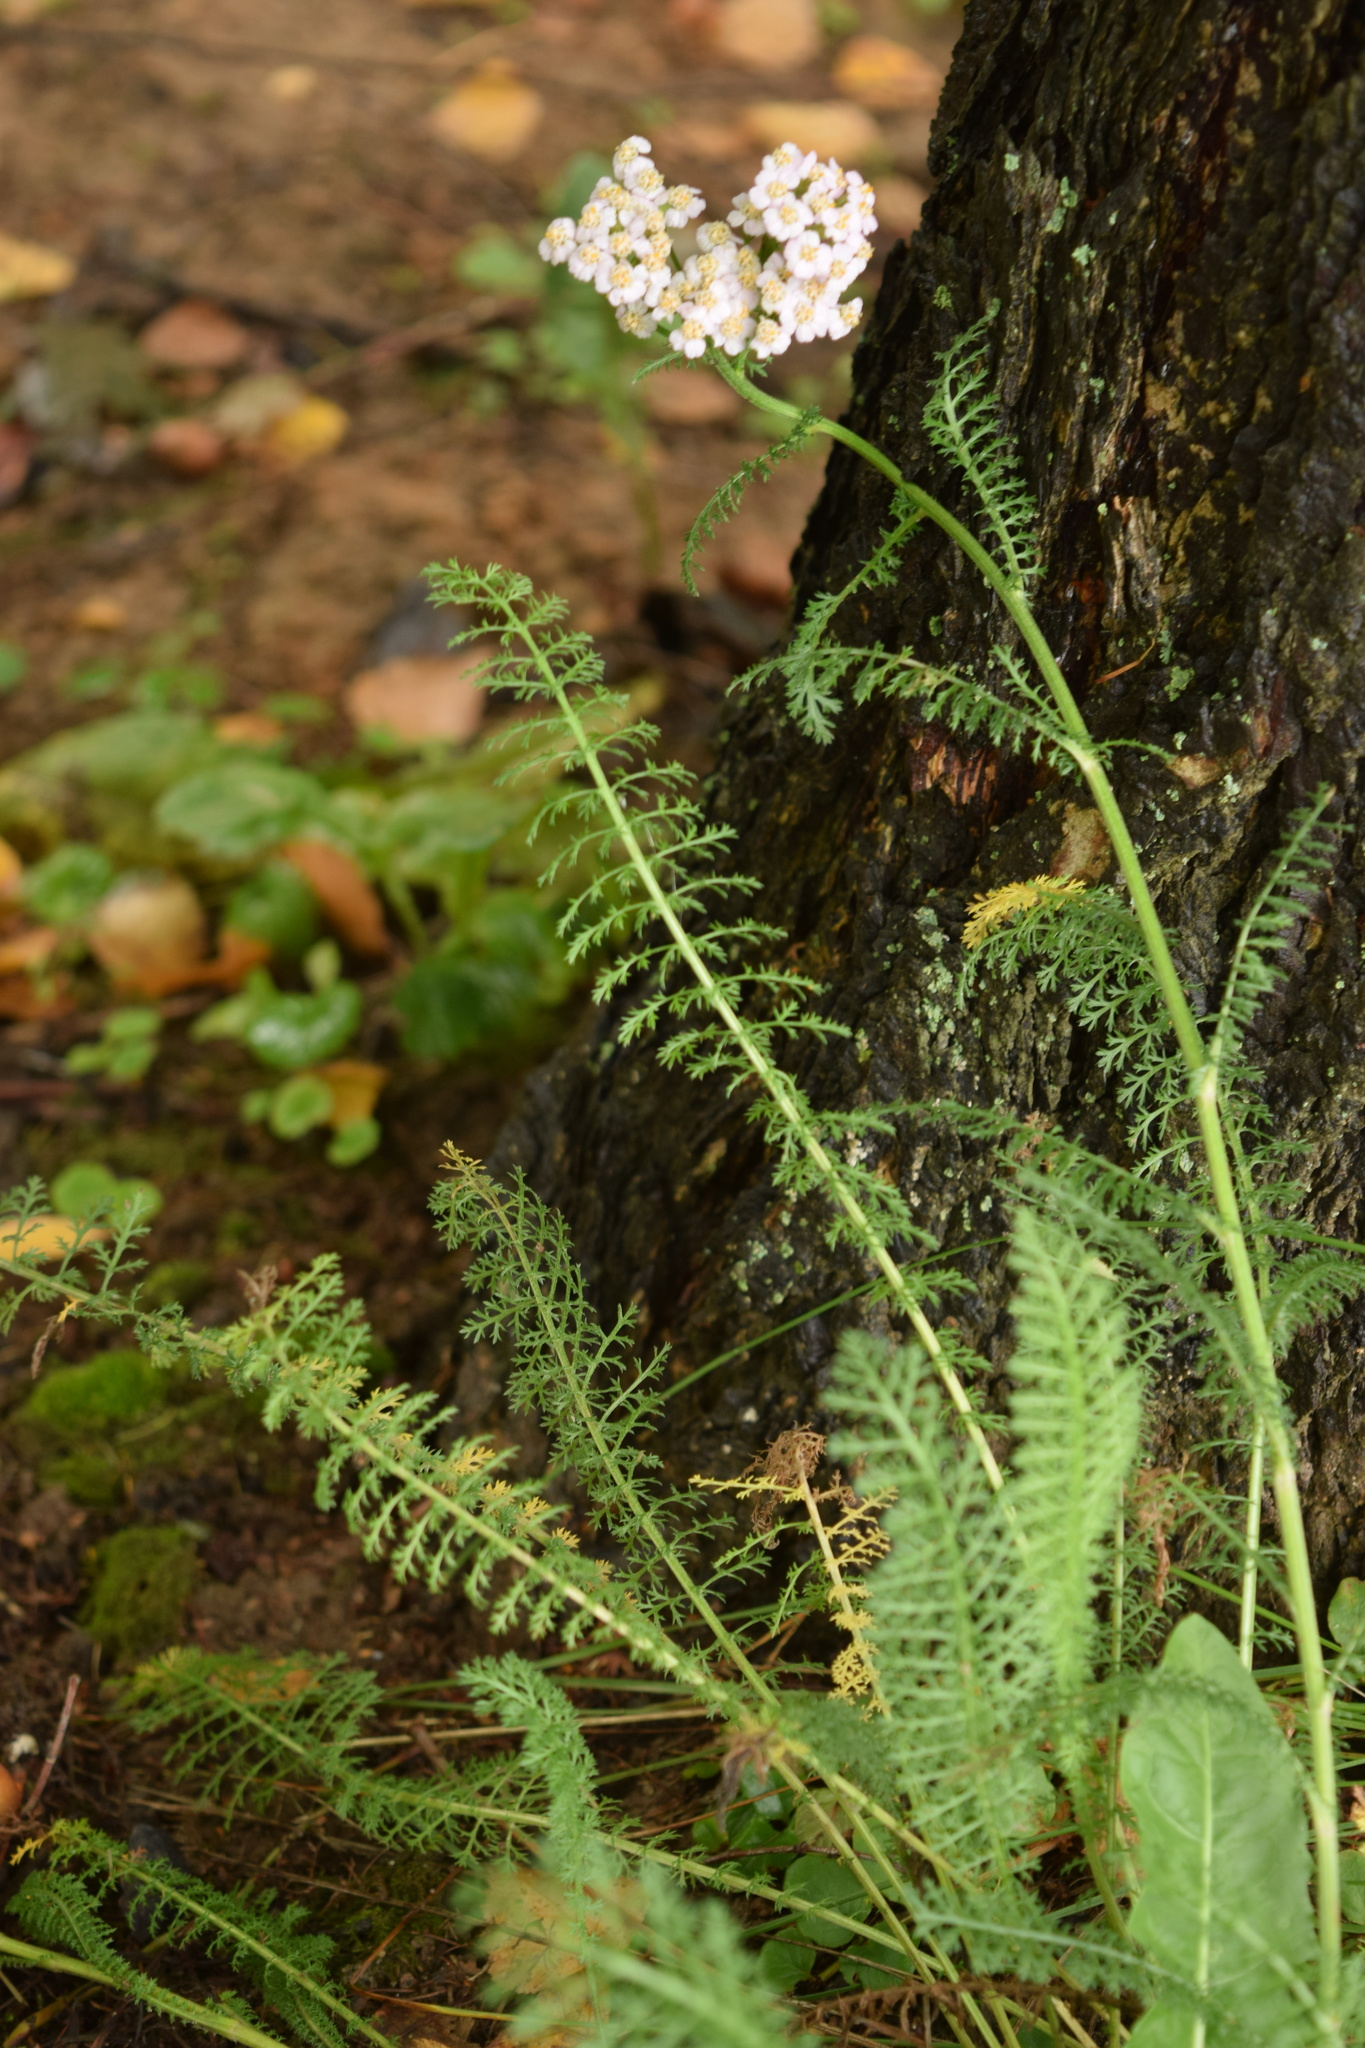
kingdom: Plantae
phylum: Tracheophyta
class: Magnoliopsida
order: Asterales
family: Asteraceae
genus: Achillea
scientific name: Achillea millefolium
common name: Yarrow
